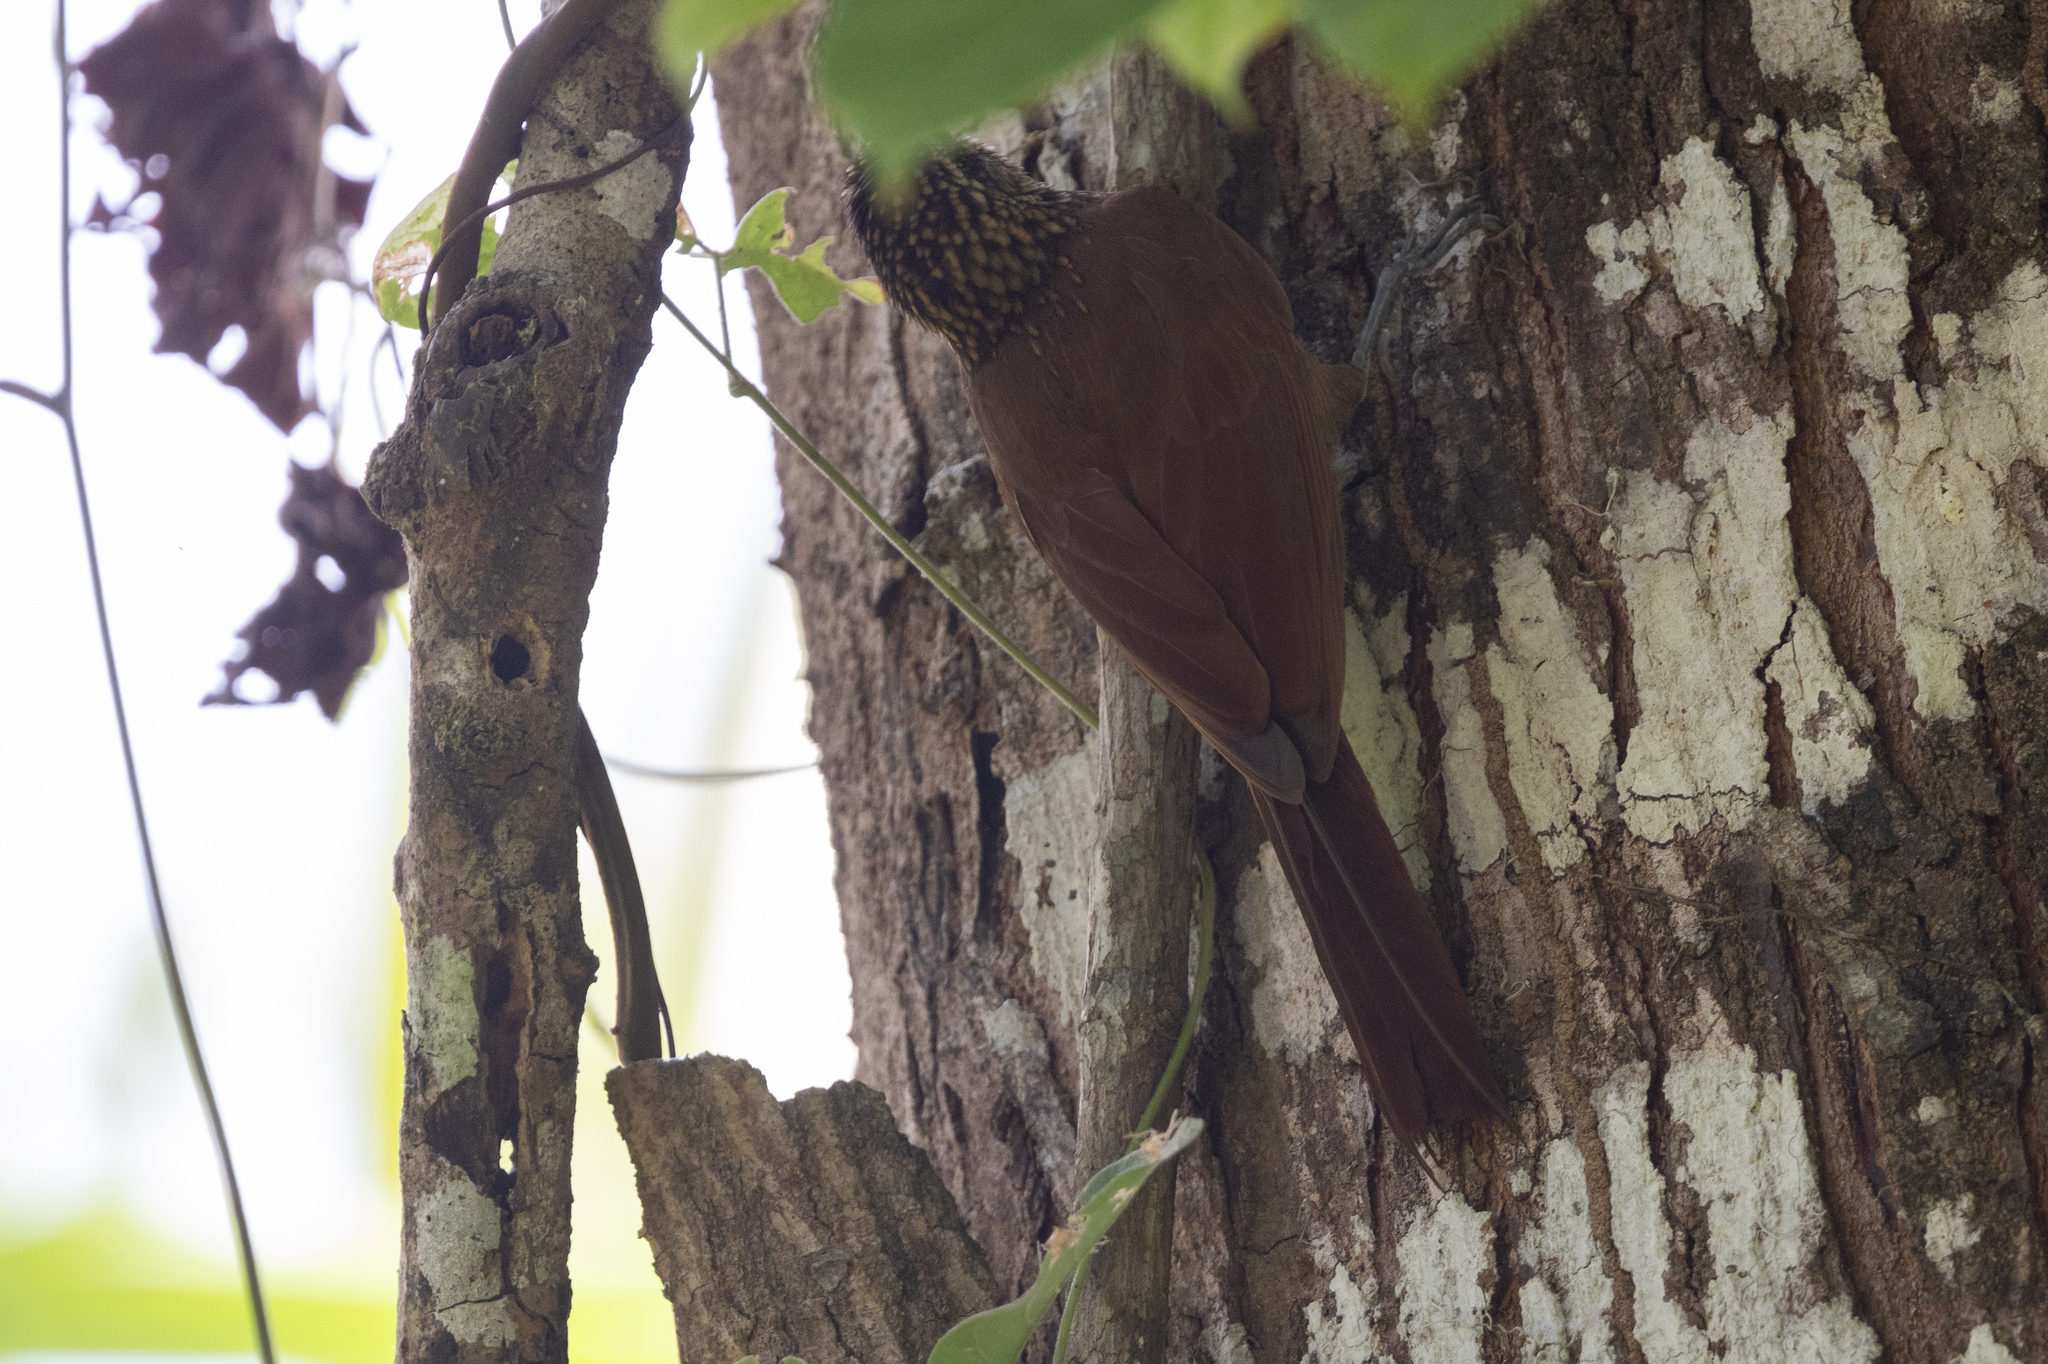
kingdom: Animalia
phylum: Chordata
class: Aves
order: Passeriformes
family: Furnariidae
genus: Xiphorhynchus
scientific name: Xiphorhynchus susurrans
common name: Cocoa woodcreeper
